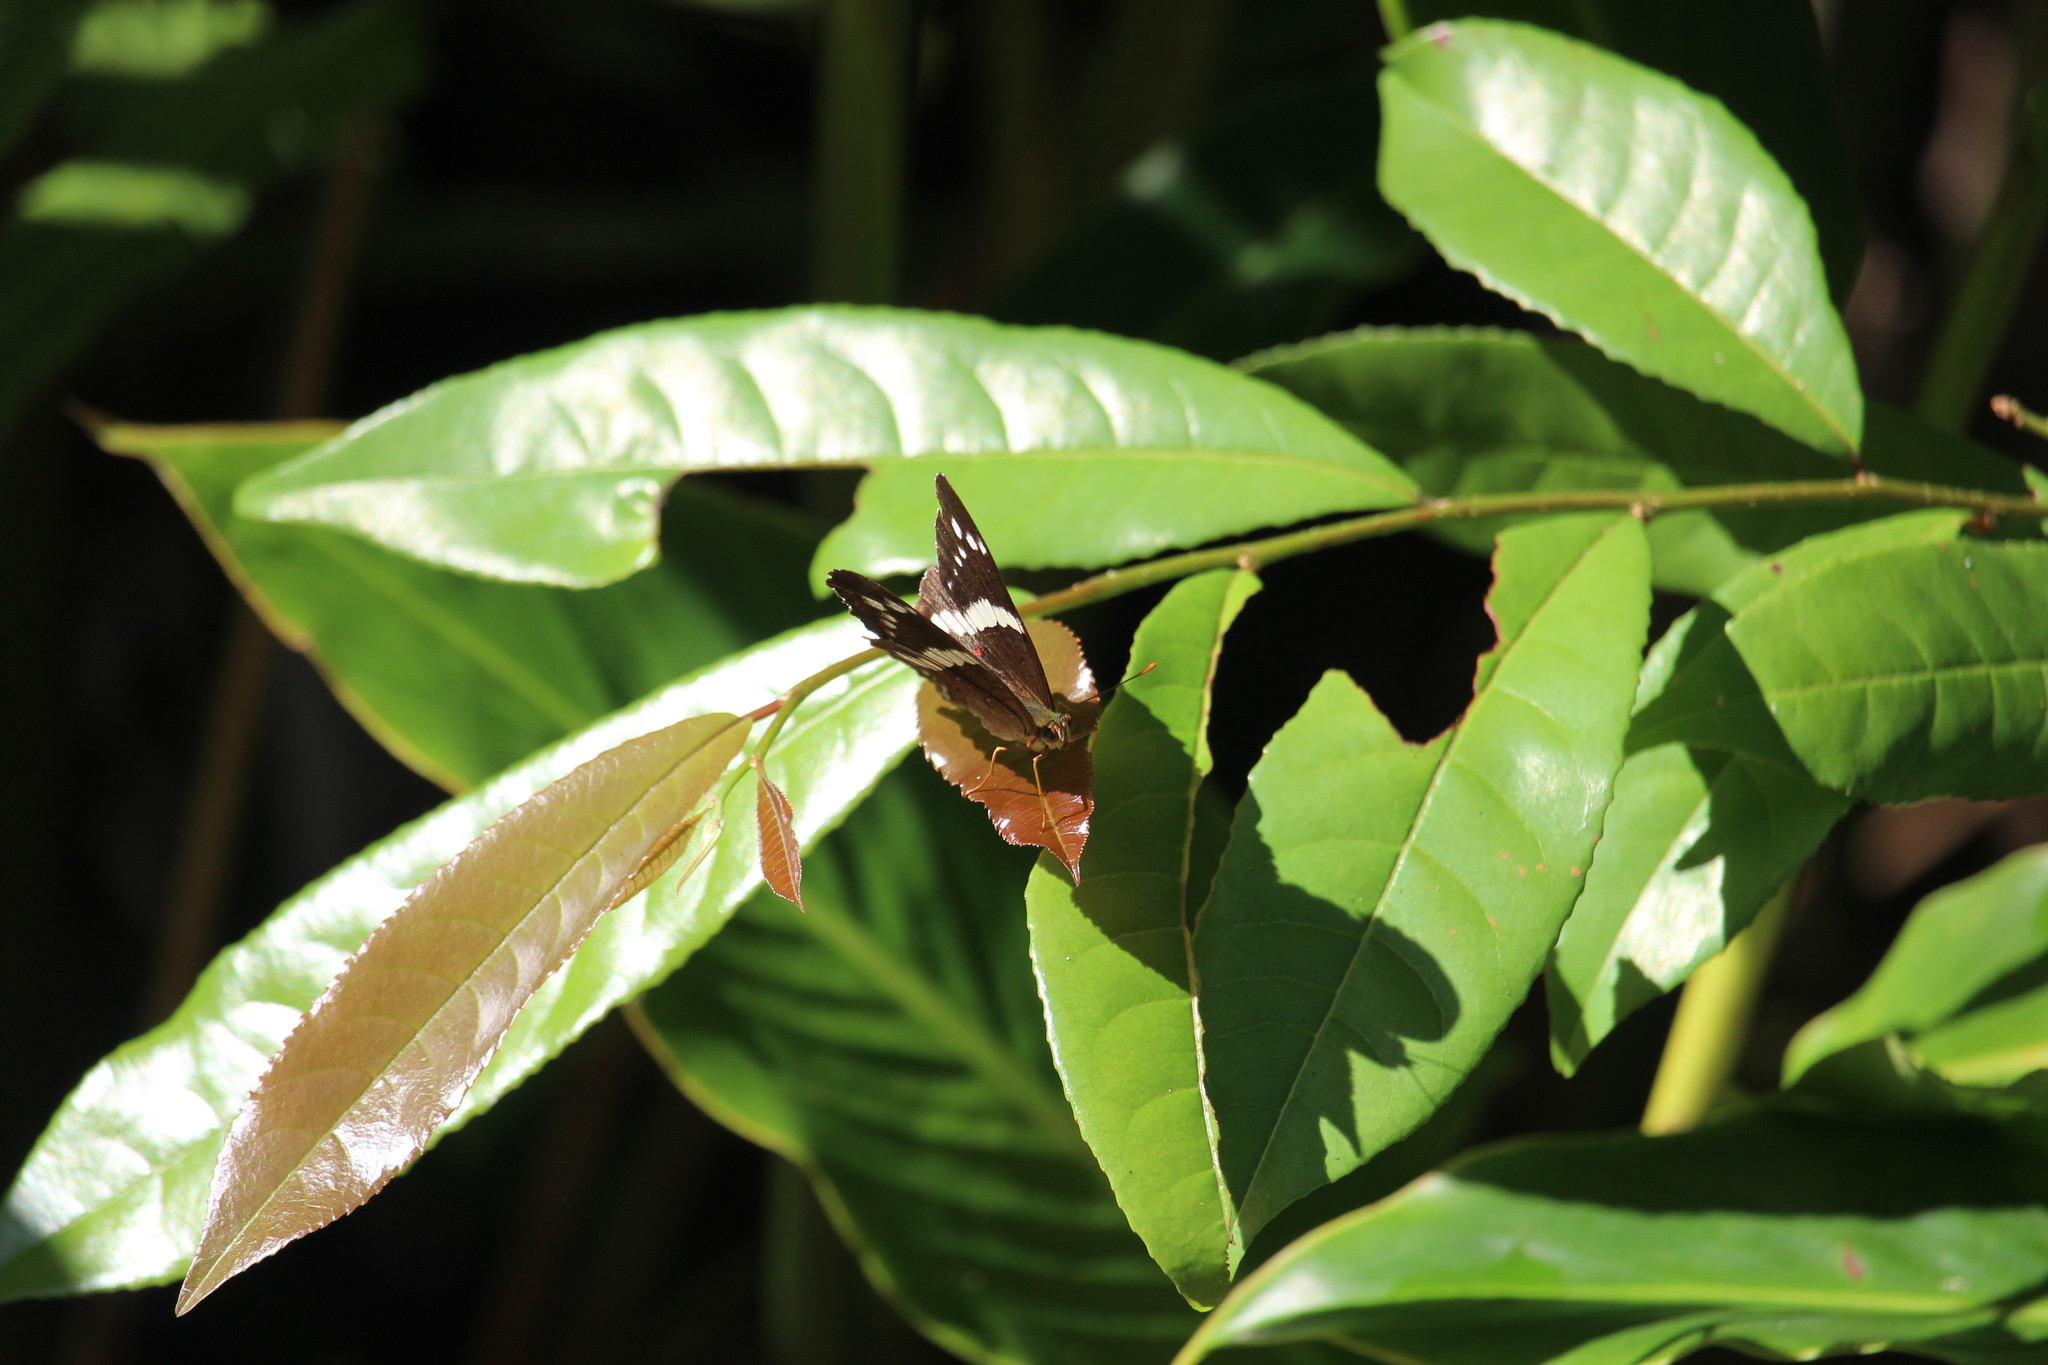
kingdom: Animalia
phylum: Arthropoda
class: Insecta
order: Lepidoptera
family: Nymphalidae
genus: Anartia
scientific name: Anartia fatima
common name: Banded peacock
